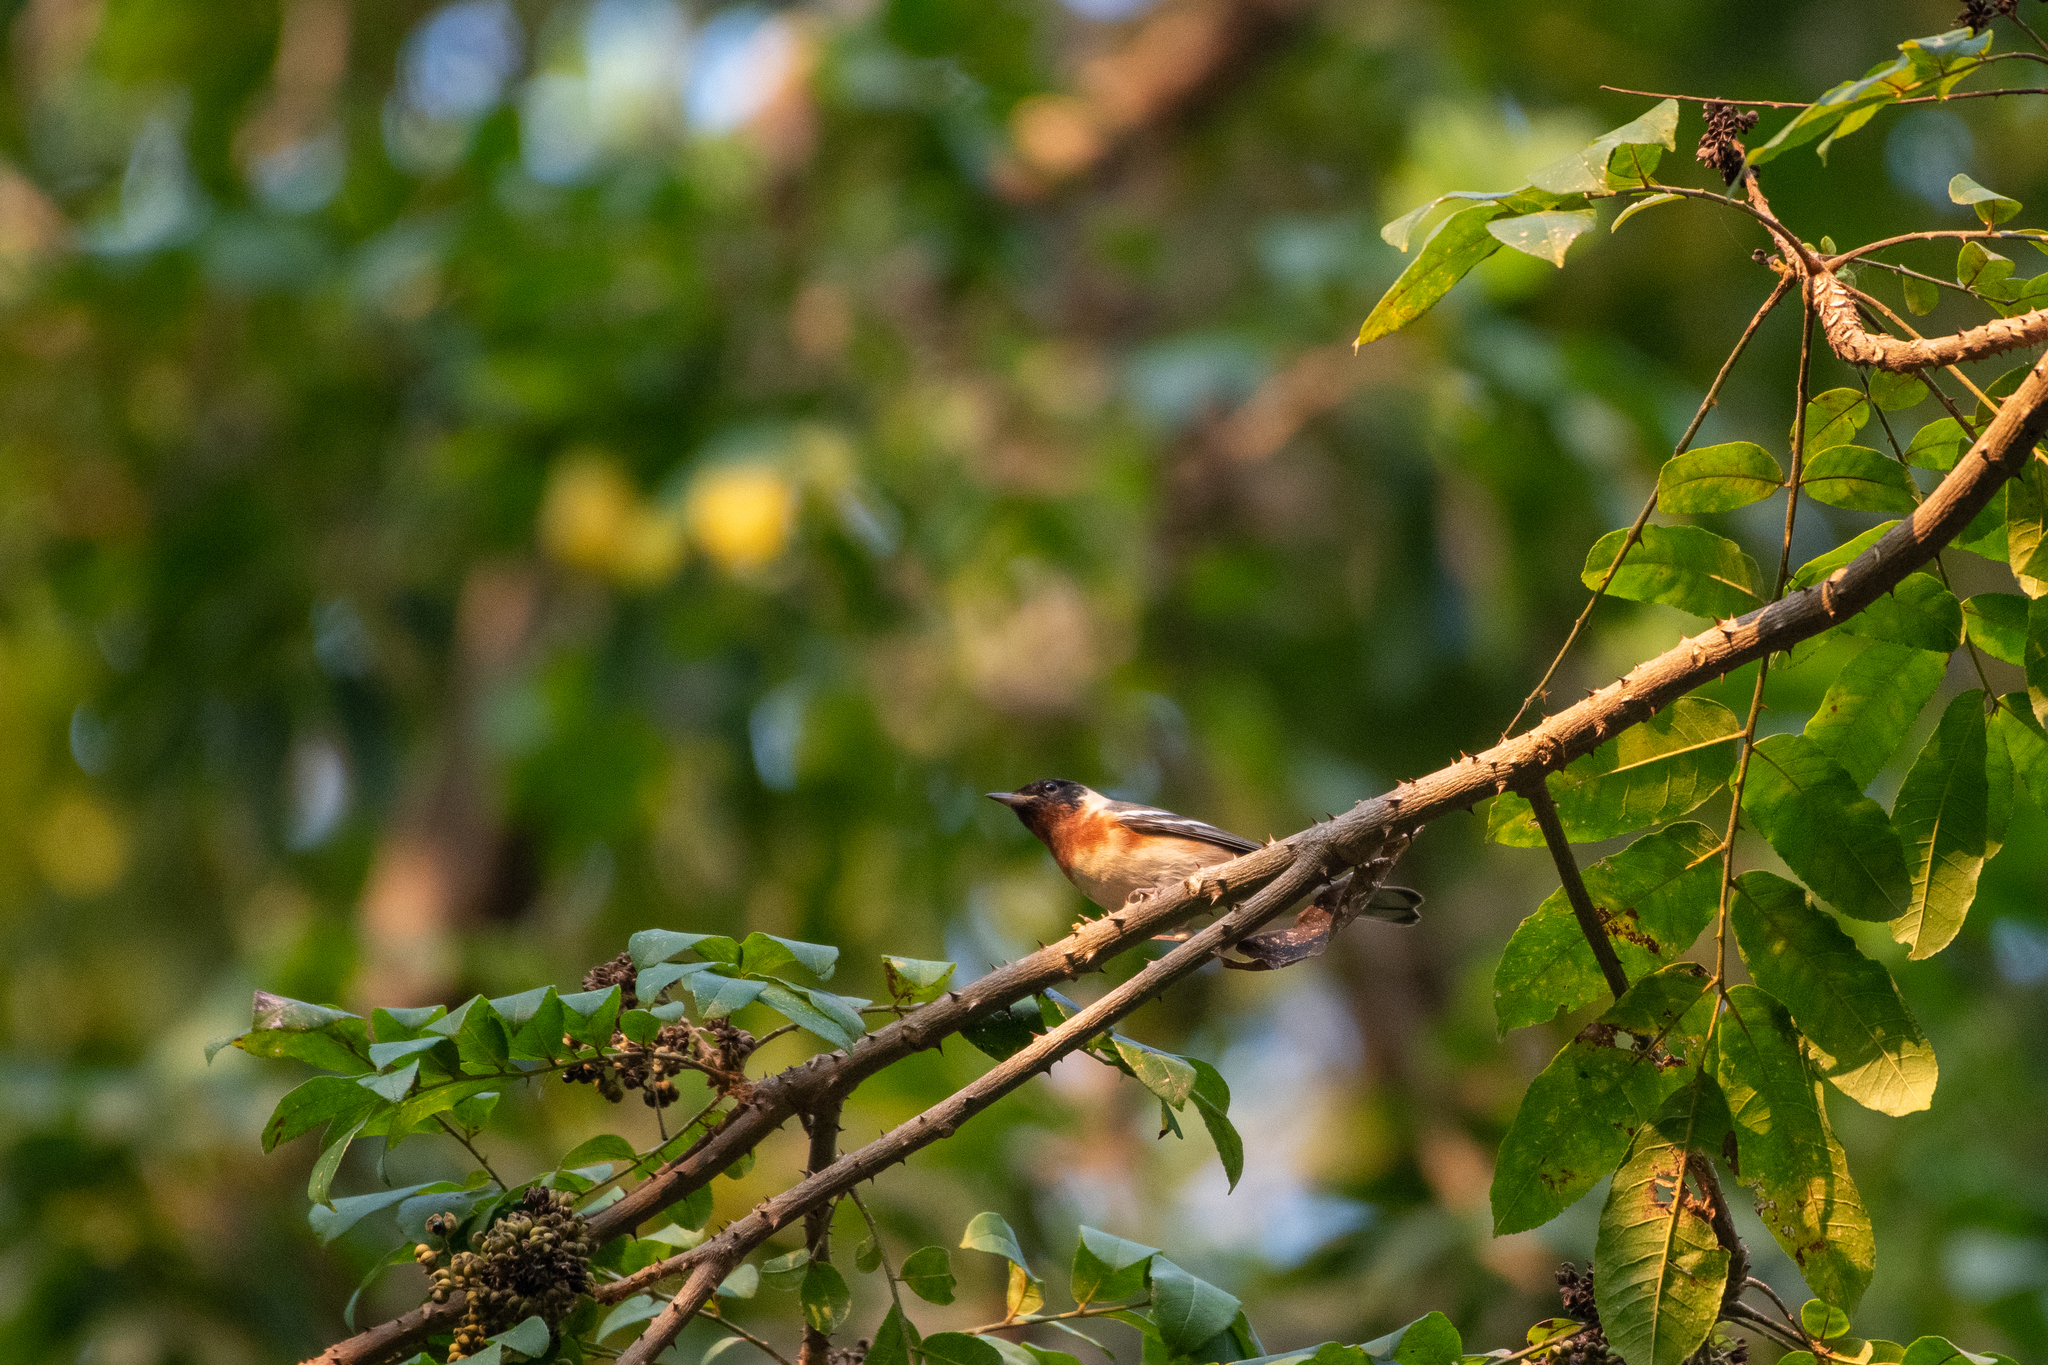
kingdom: Animalia
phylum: Chordata
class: Aves
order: Passeriformes
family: Parulidae
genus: Setophaga
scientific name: Setophaga castanea
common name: Bay-breasted warbler
